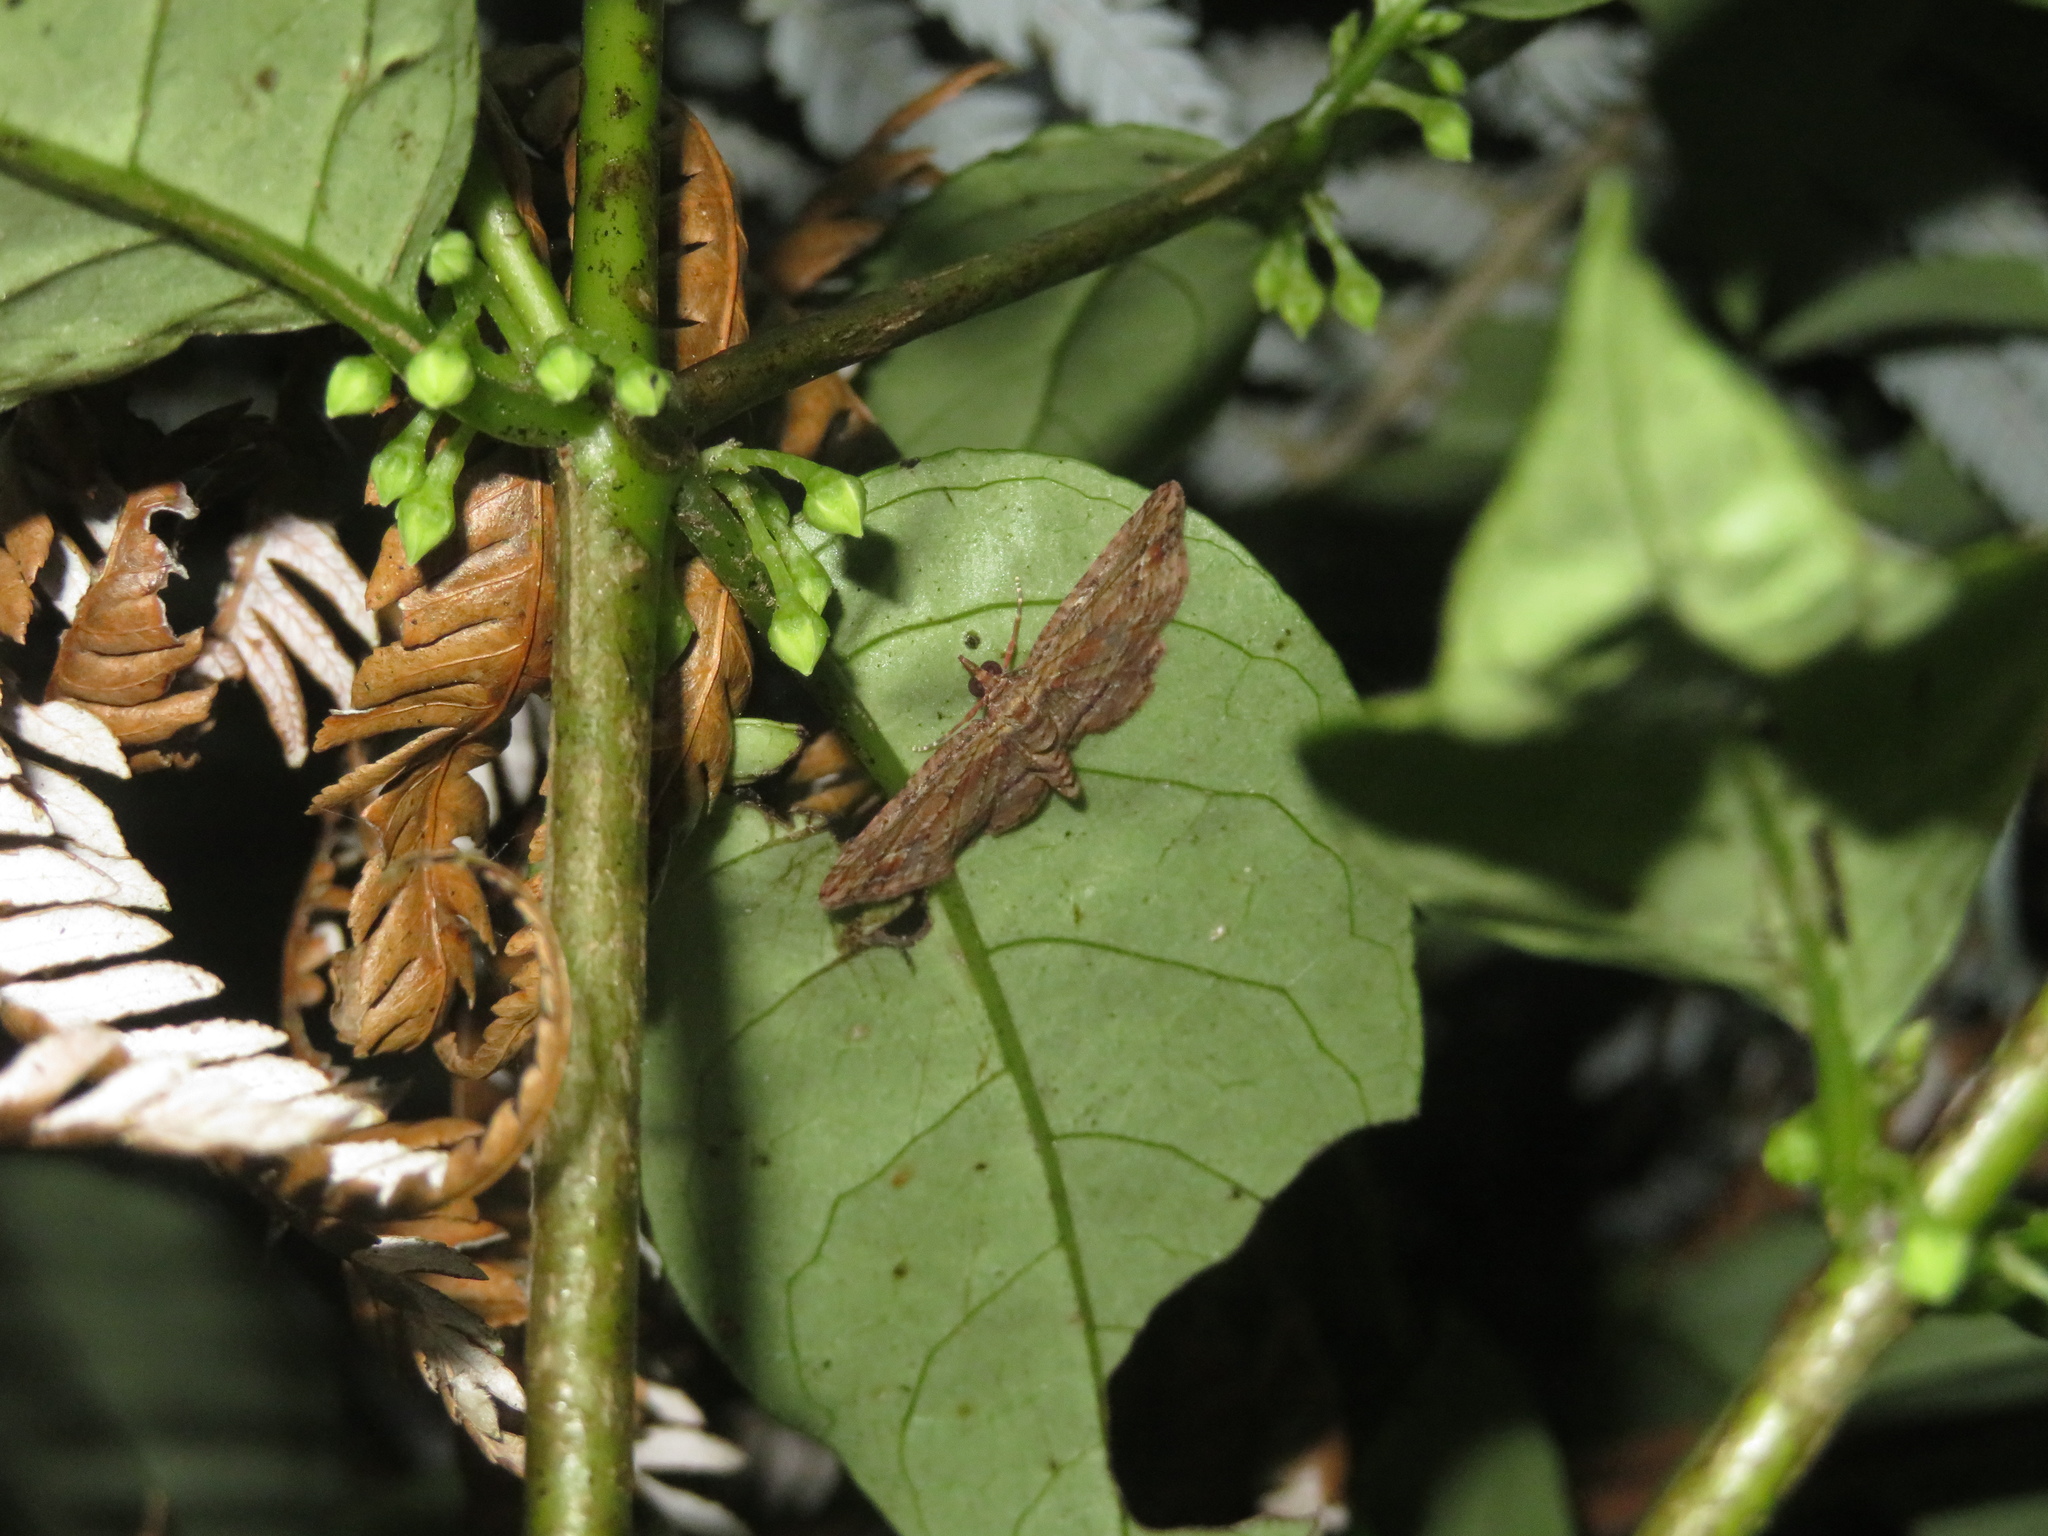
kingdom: Animalia
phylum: Arthropoda
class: Insecta
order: Lepidoptera
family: Geometridae
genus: Chloroclystis
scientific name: Chloroclystis filata
